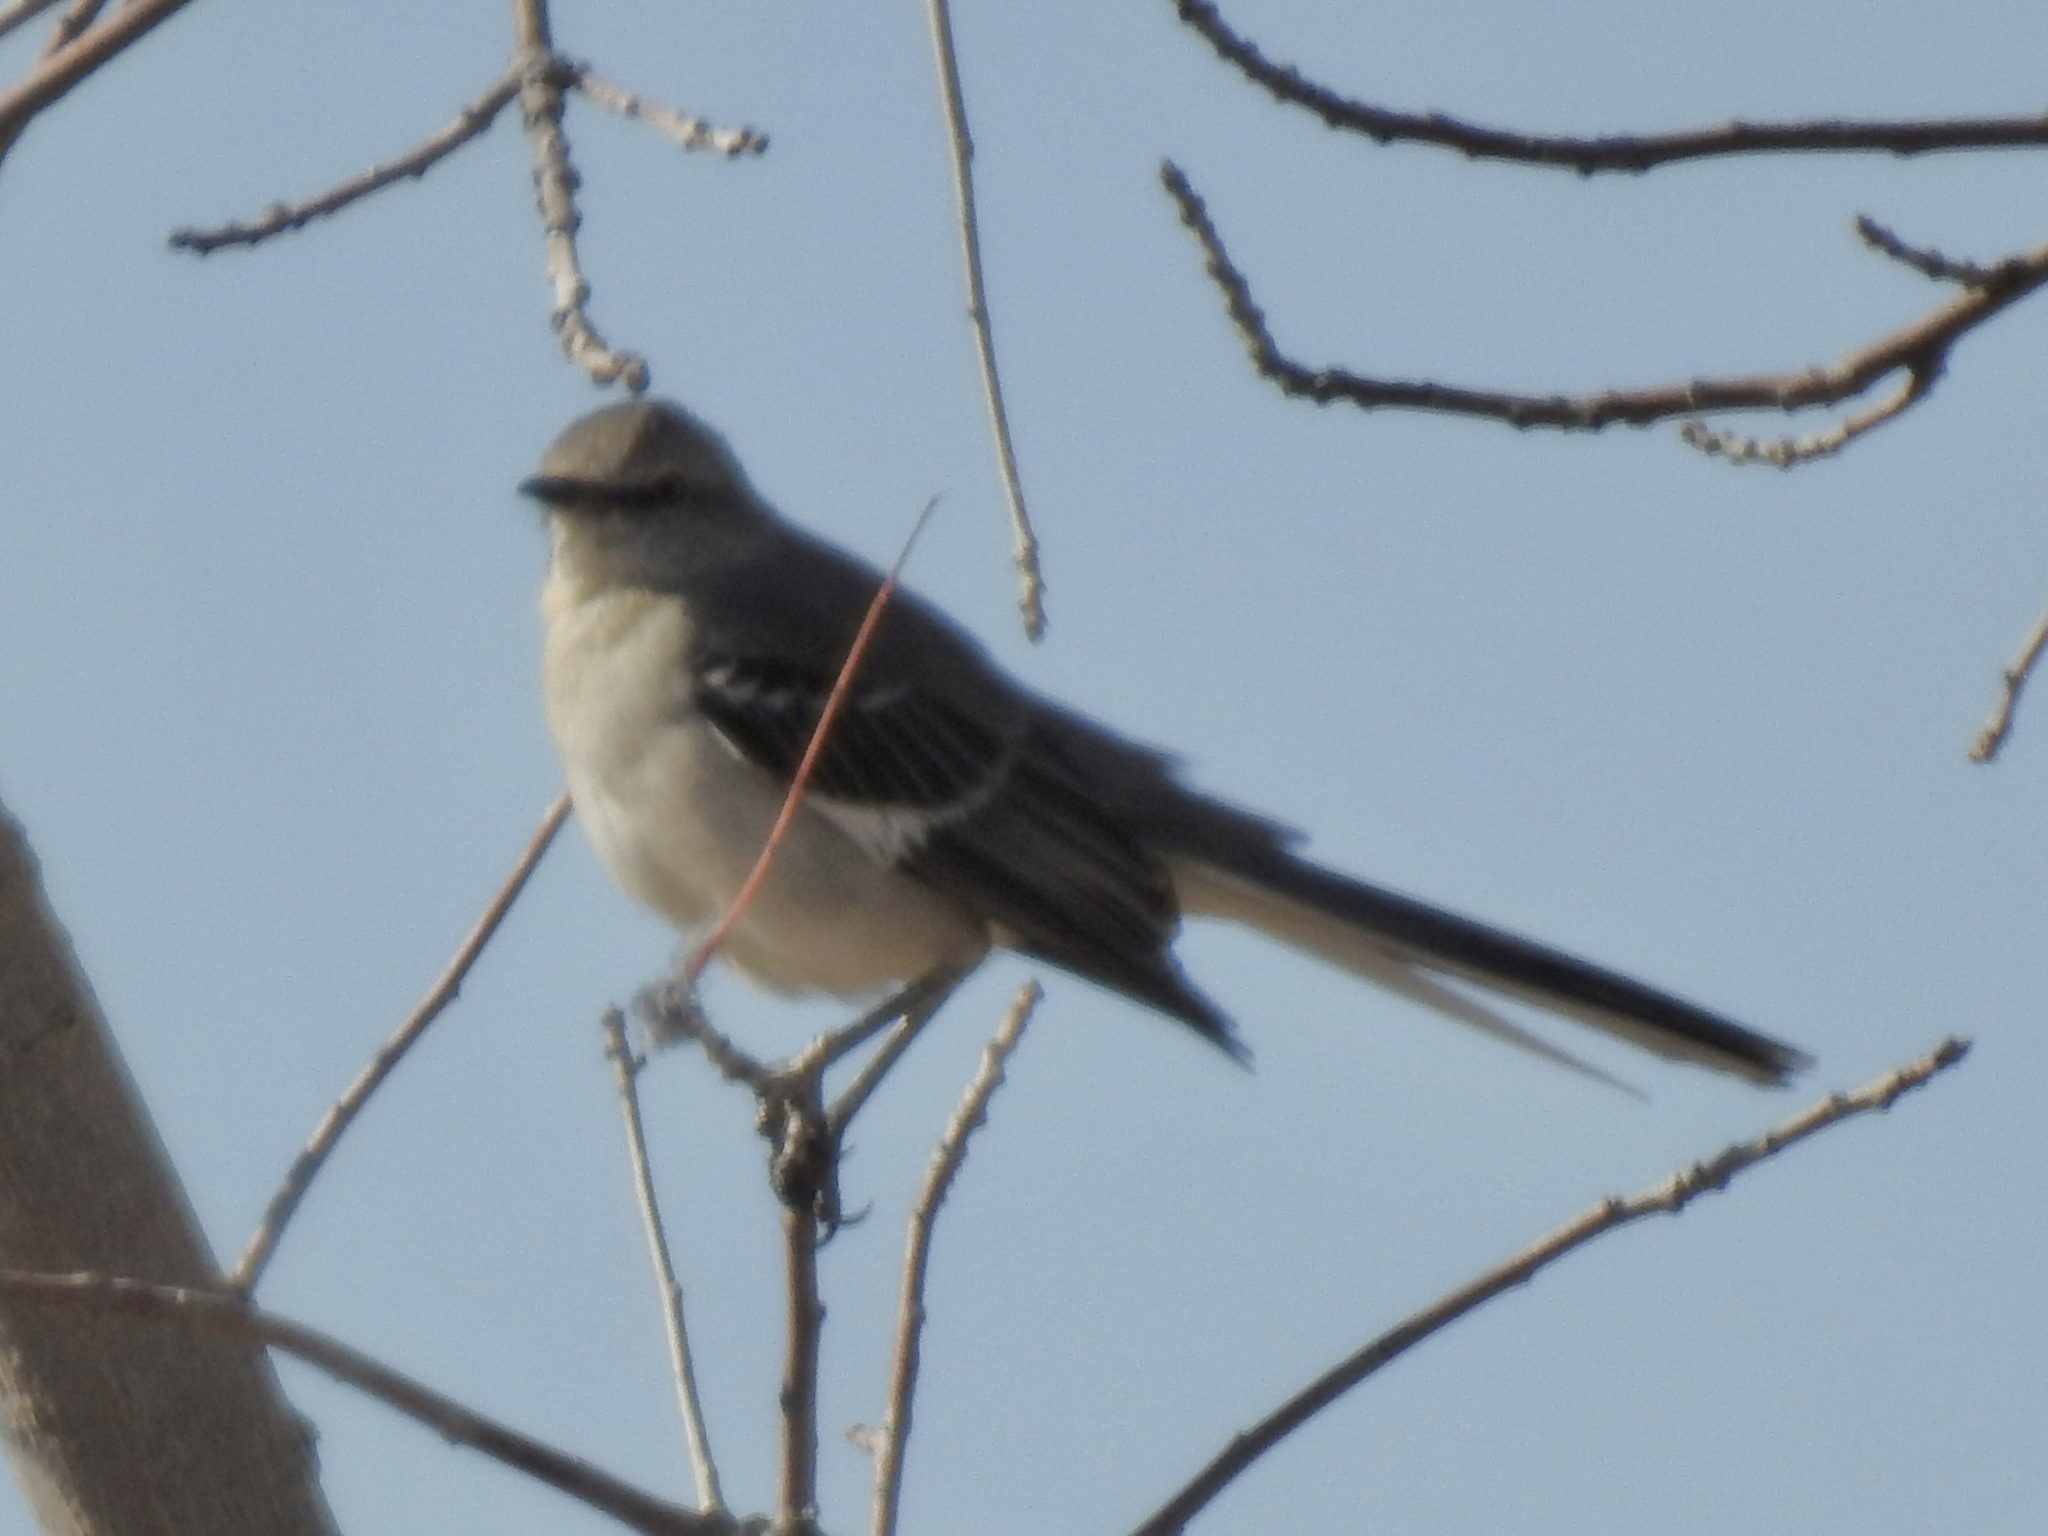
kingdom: Animalia
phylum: Chordata
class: Aves
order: Passeriformes
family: Mimidae
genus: Mimus
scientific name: Mimus polyglottos
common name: Northern mockingbird
